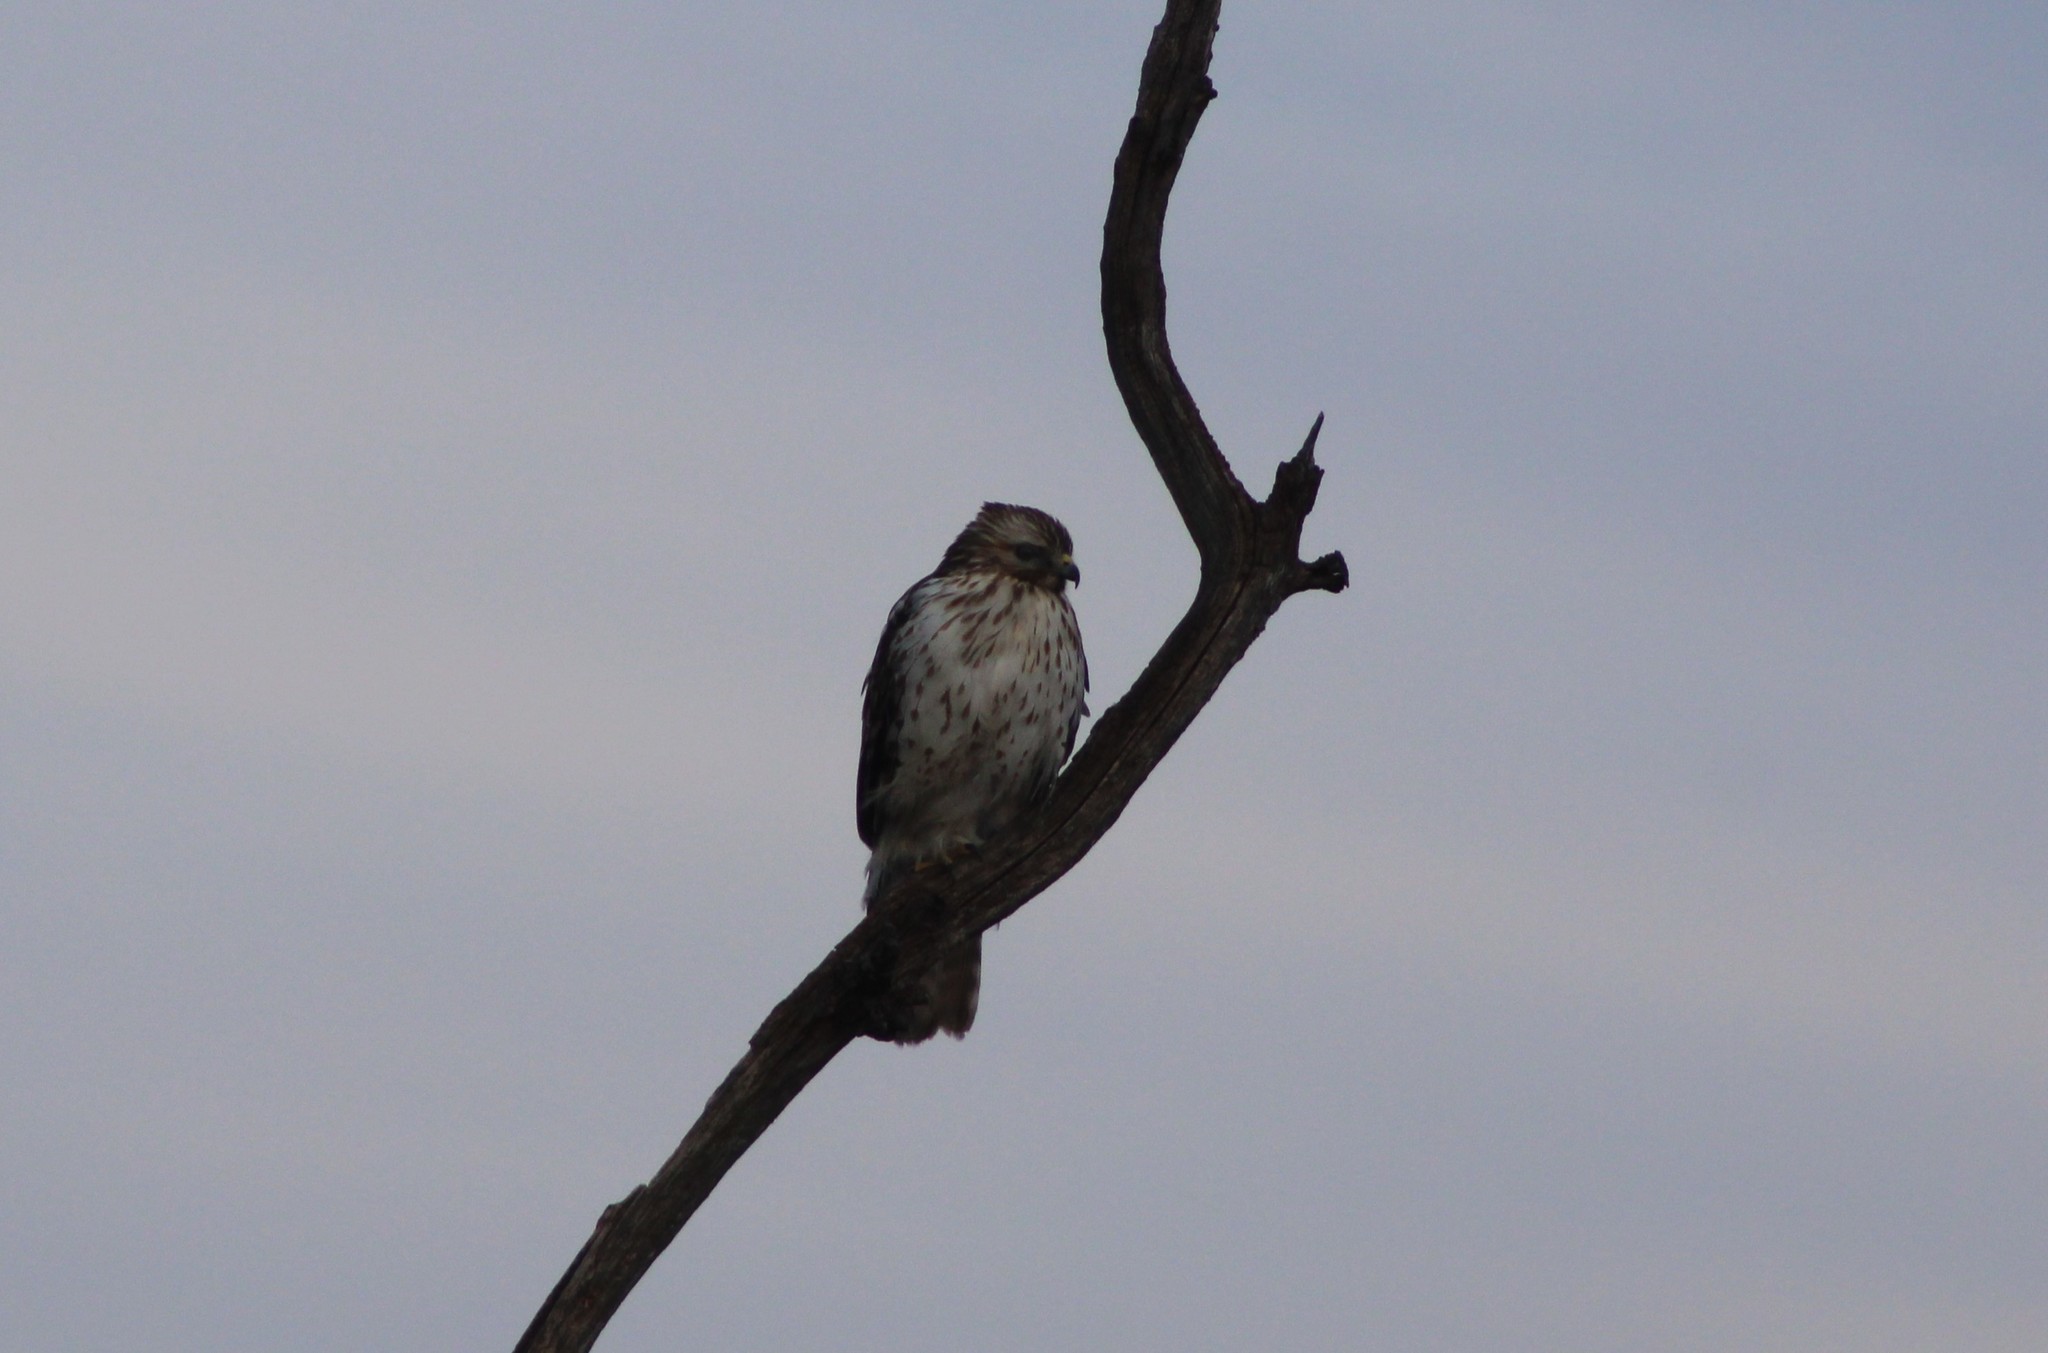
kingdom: Animalia
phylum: Chordata
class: Aves
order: Accipitriformes
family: Accipitridae
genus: Buteo
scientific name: Buteo lineatus
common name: Red-shouldered hawk
